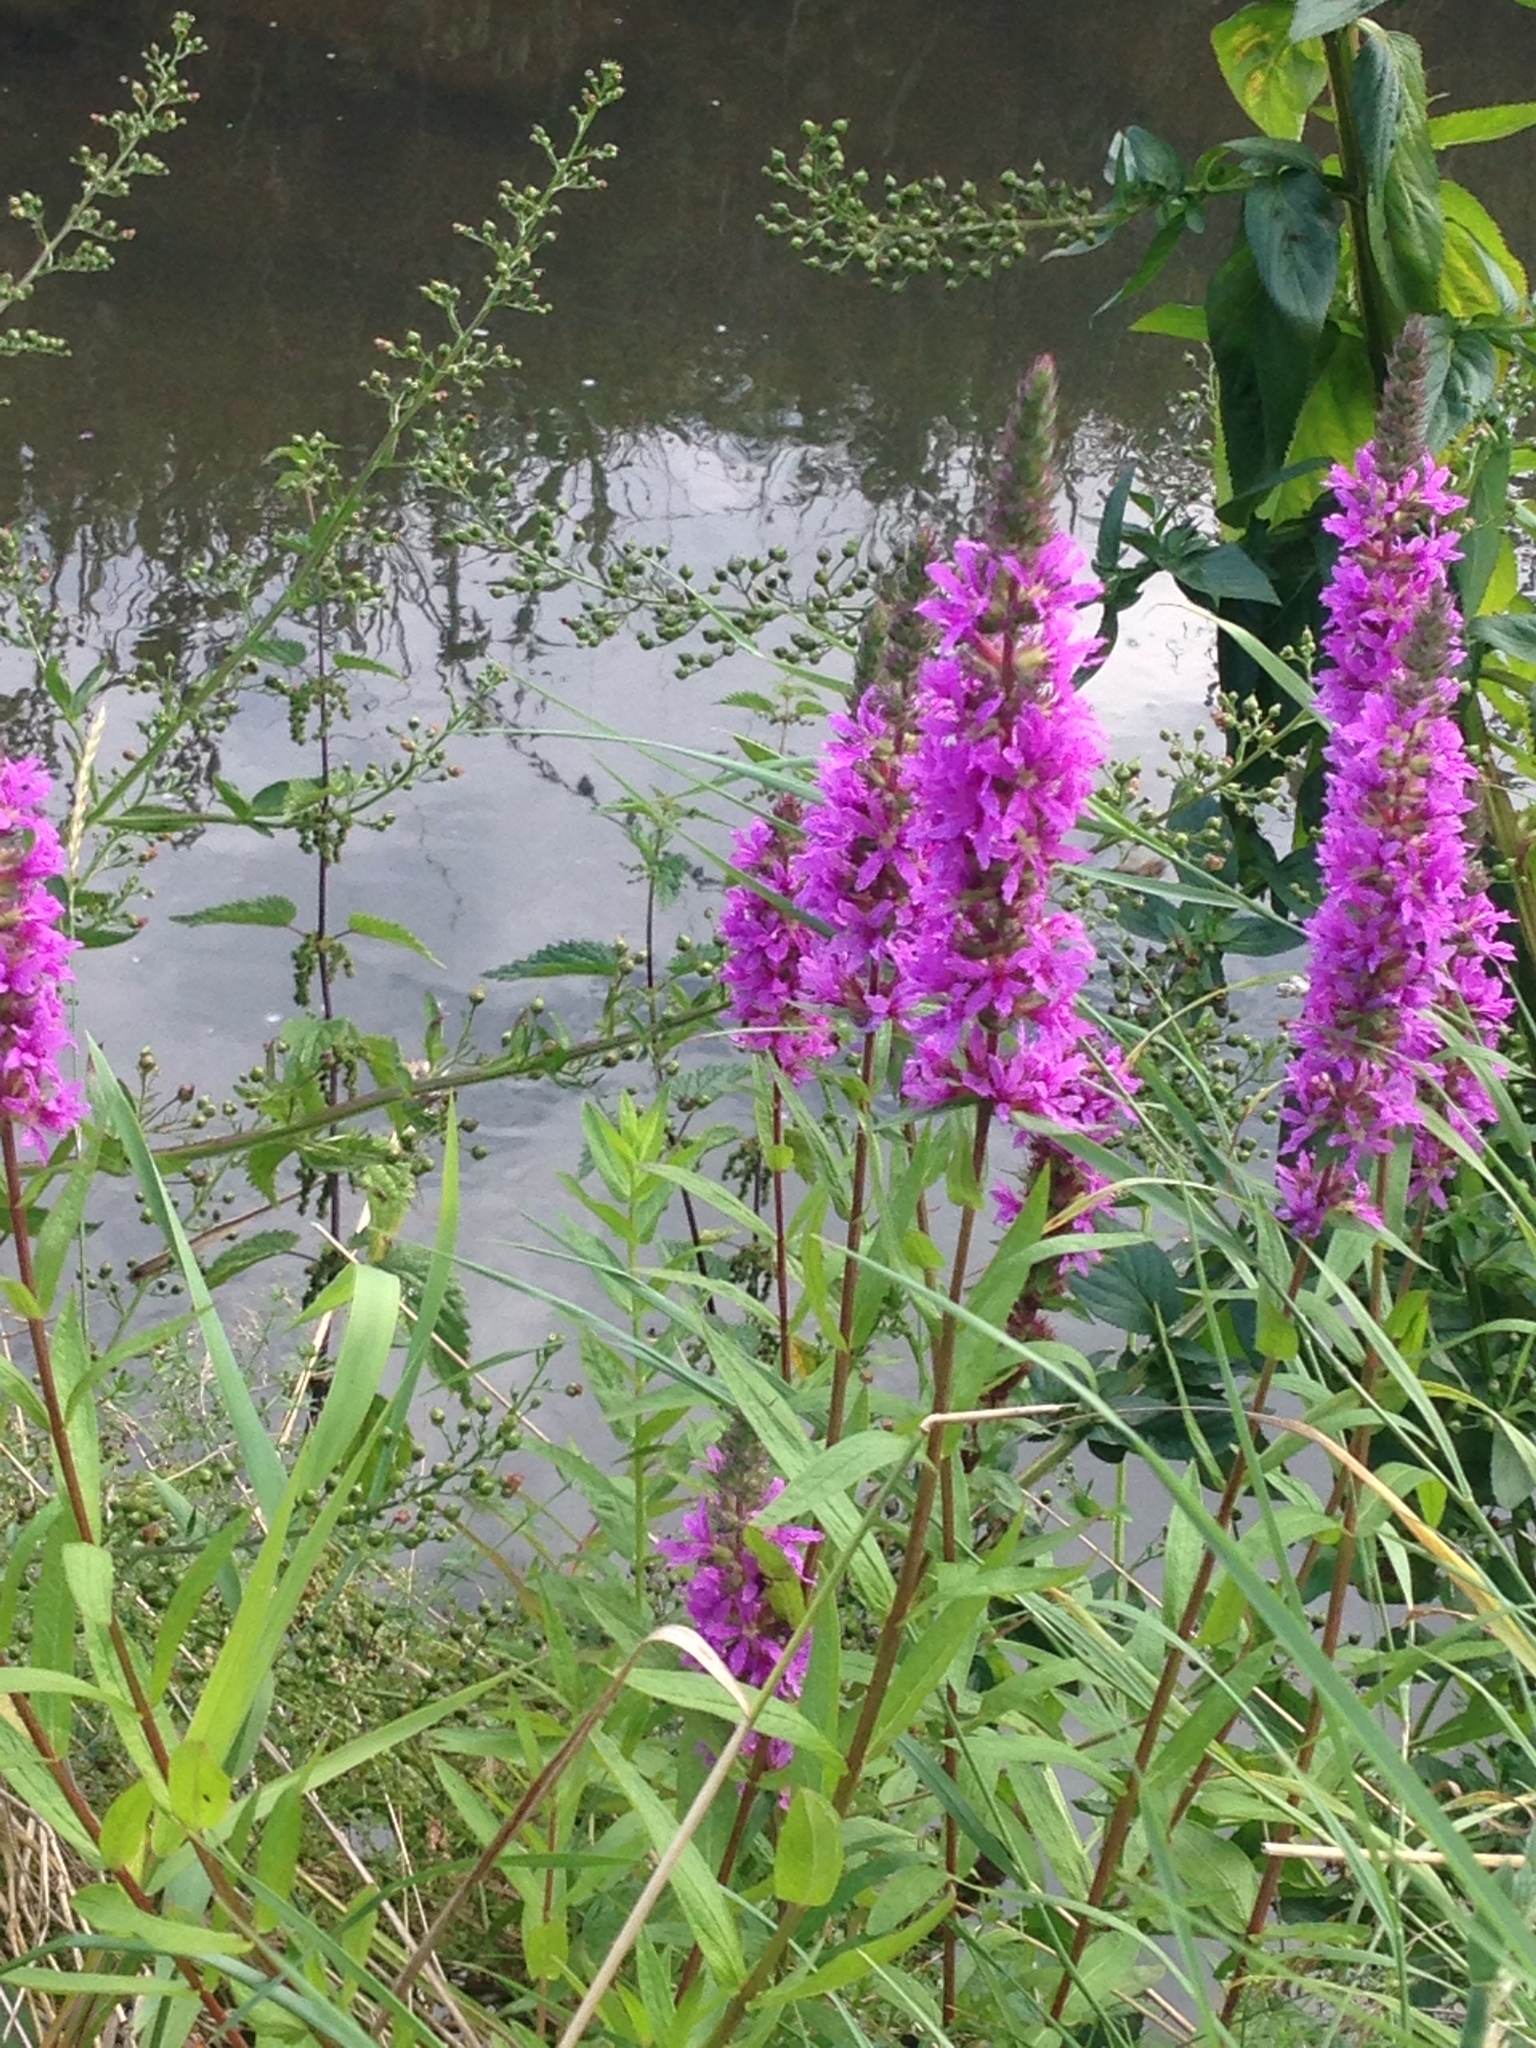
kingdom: Plantae
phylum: Tracheophyta
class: Magnoliopsida
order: Myrtales
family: Lythraceae
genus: Lythrum
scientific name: Lythrum salicaria
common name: Purple loosestrife
